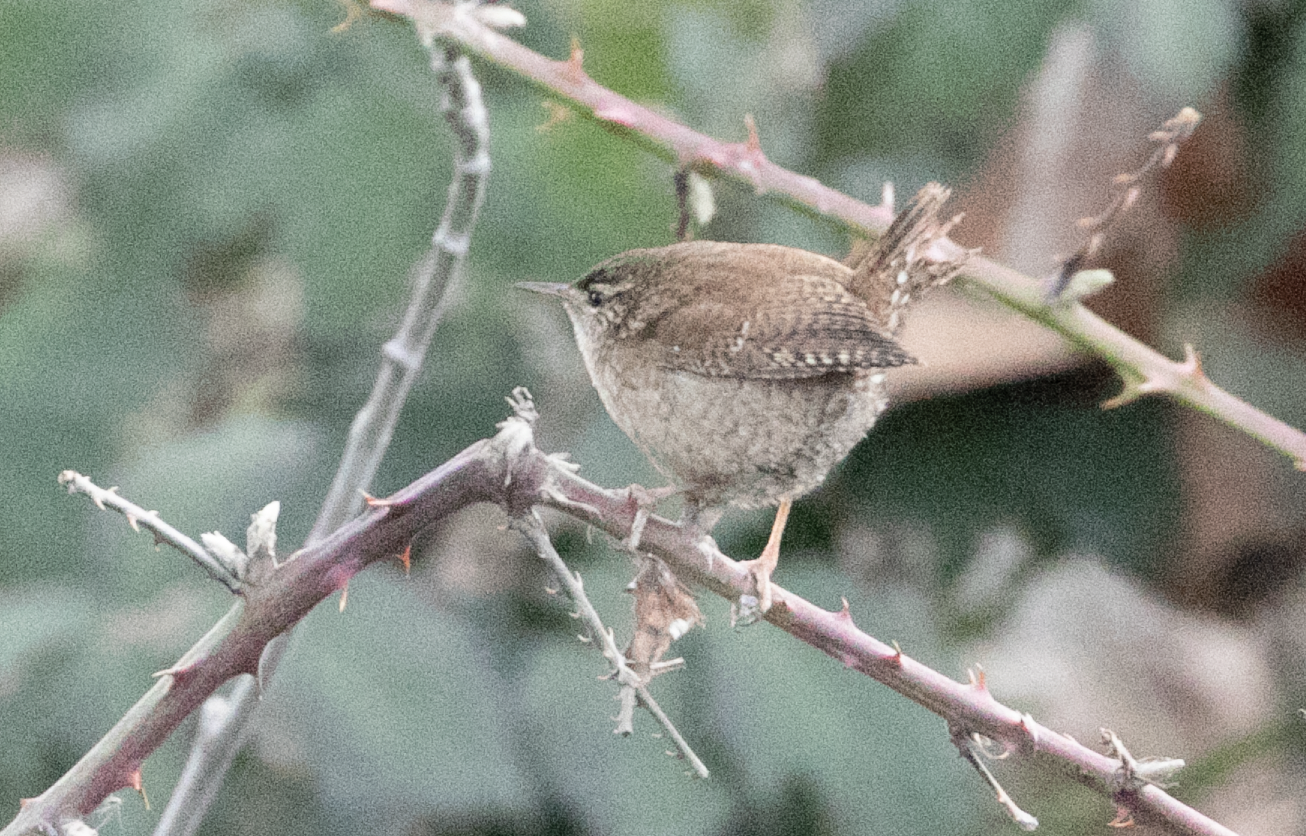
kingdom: Animalia
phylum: Chordata
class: Aves
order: Passeriformes
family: Troglodytidae
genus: Troglodytes
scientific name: Troglodytes troglodytes
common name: Eurasian wren
